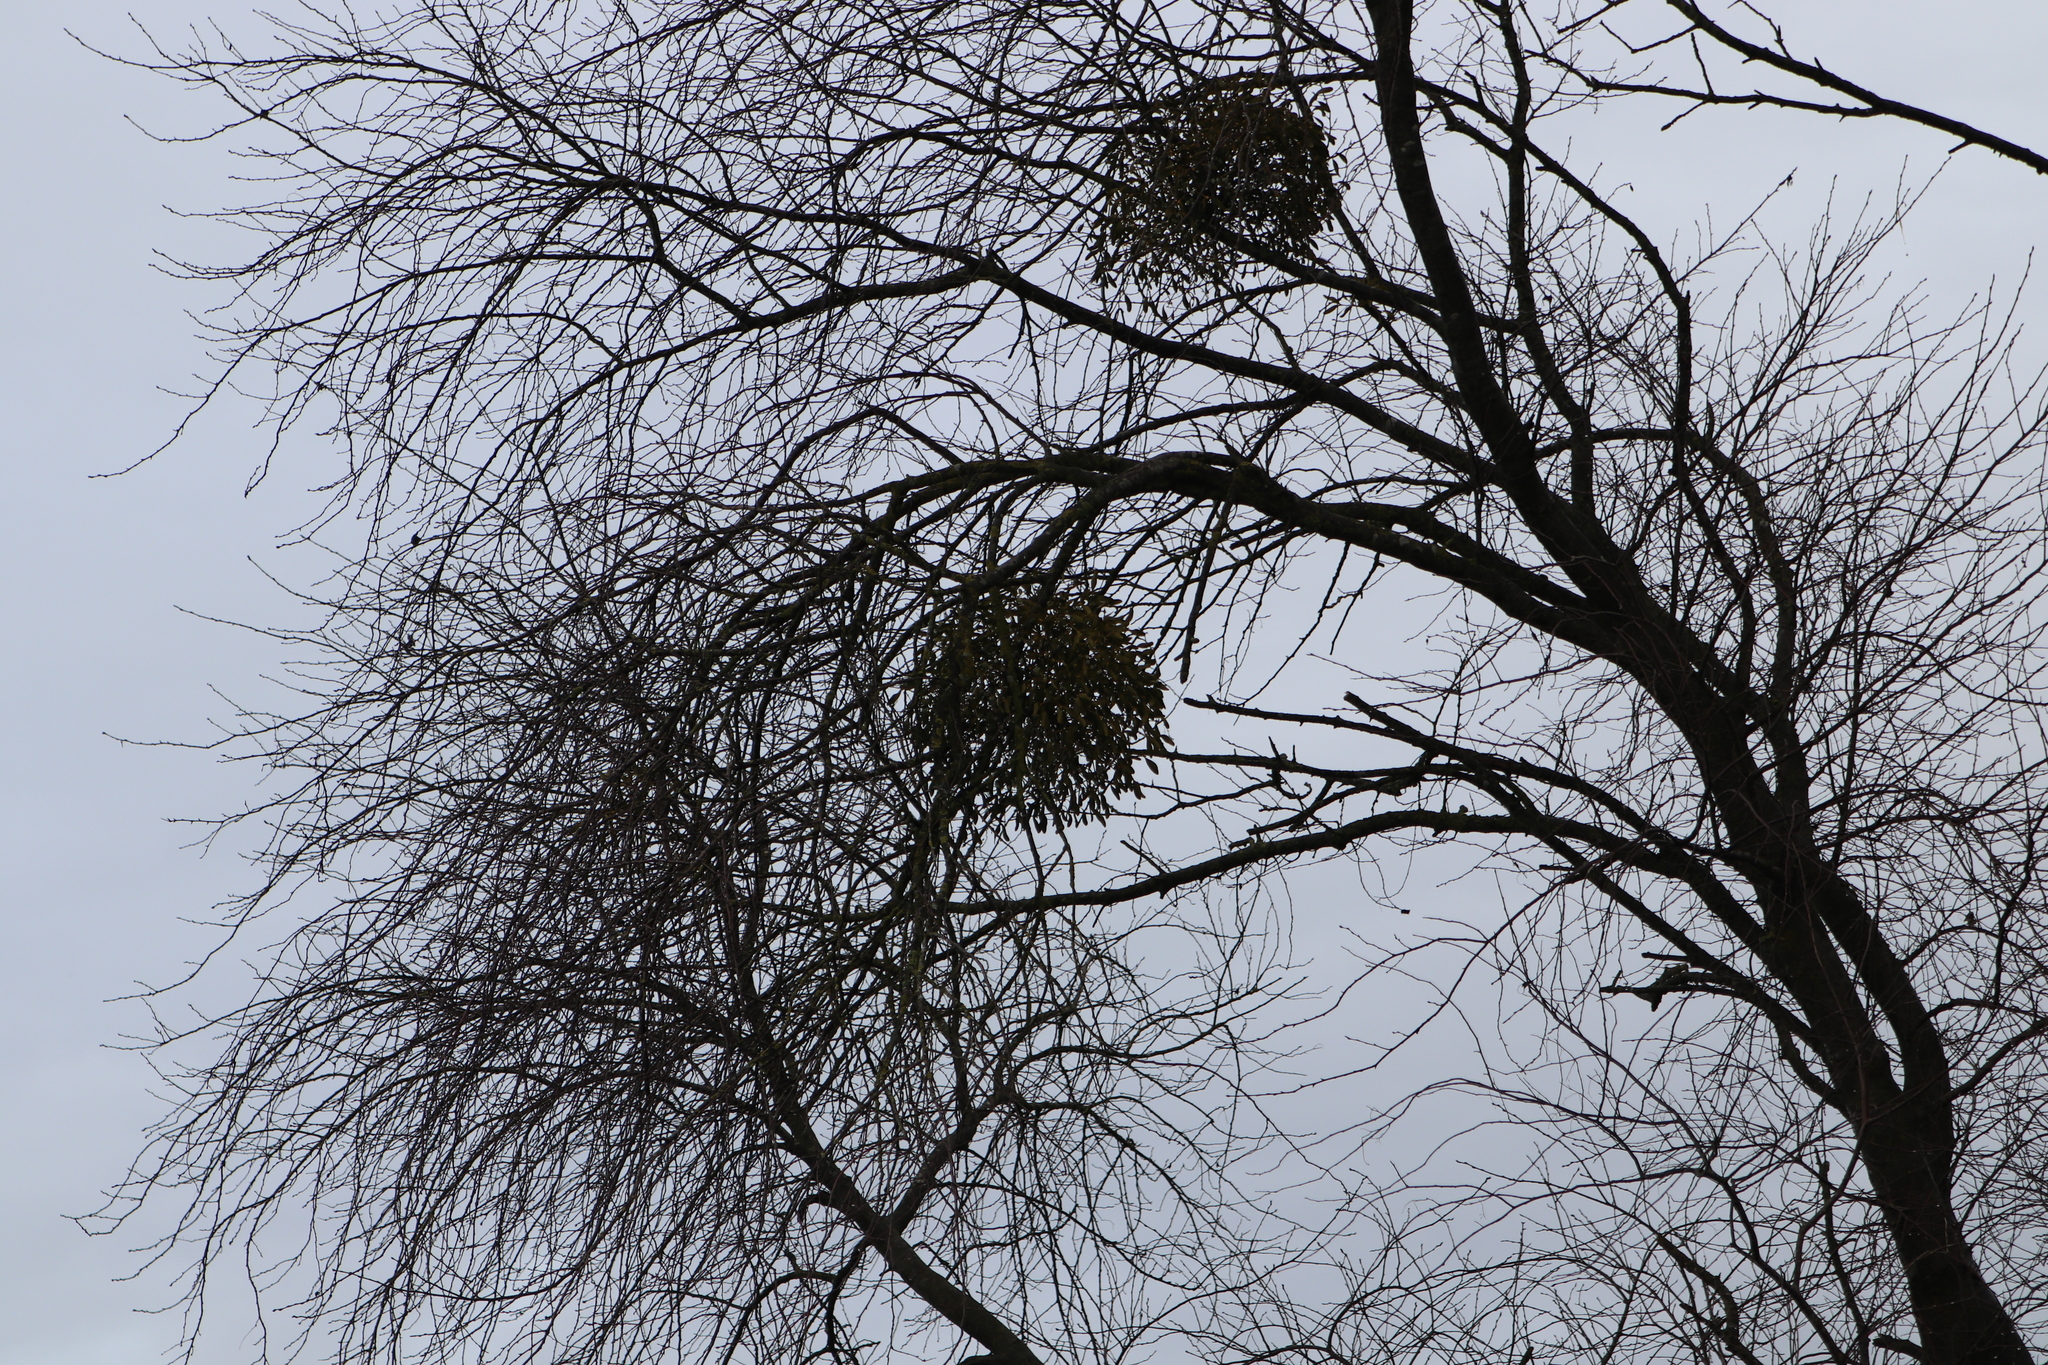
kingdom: Plantae
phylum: Tracheophyta
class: Magnoliopsida
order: Santalales
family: Viscaceae
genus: Viscum
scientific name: Viscum album
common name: Mistletoe
